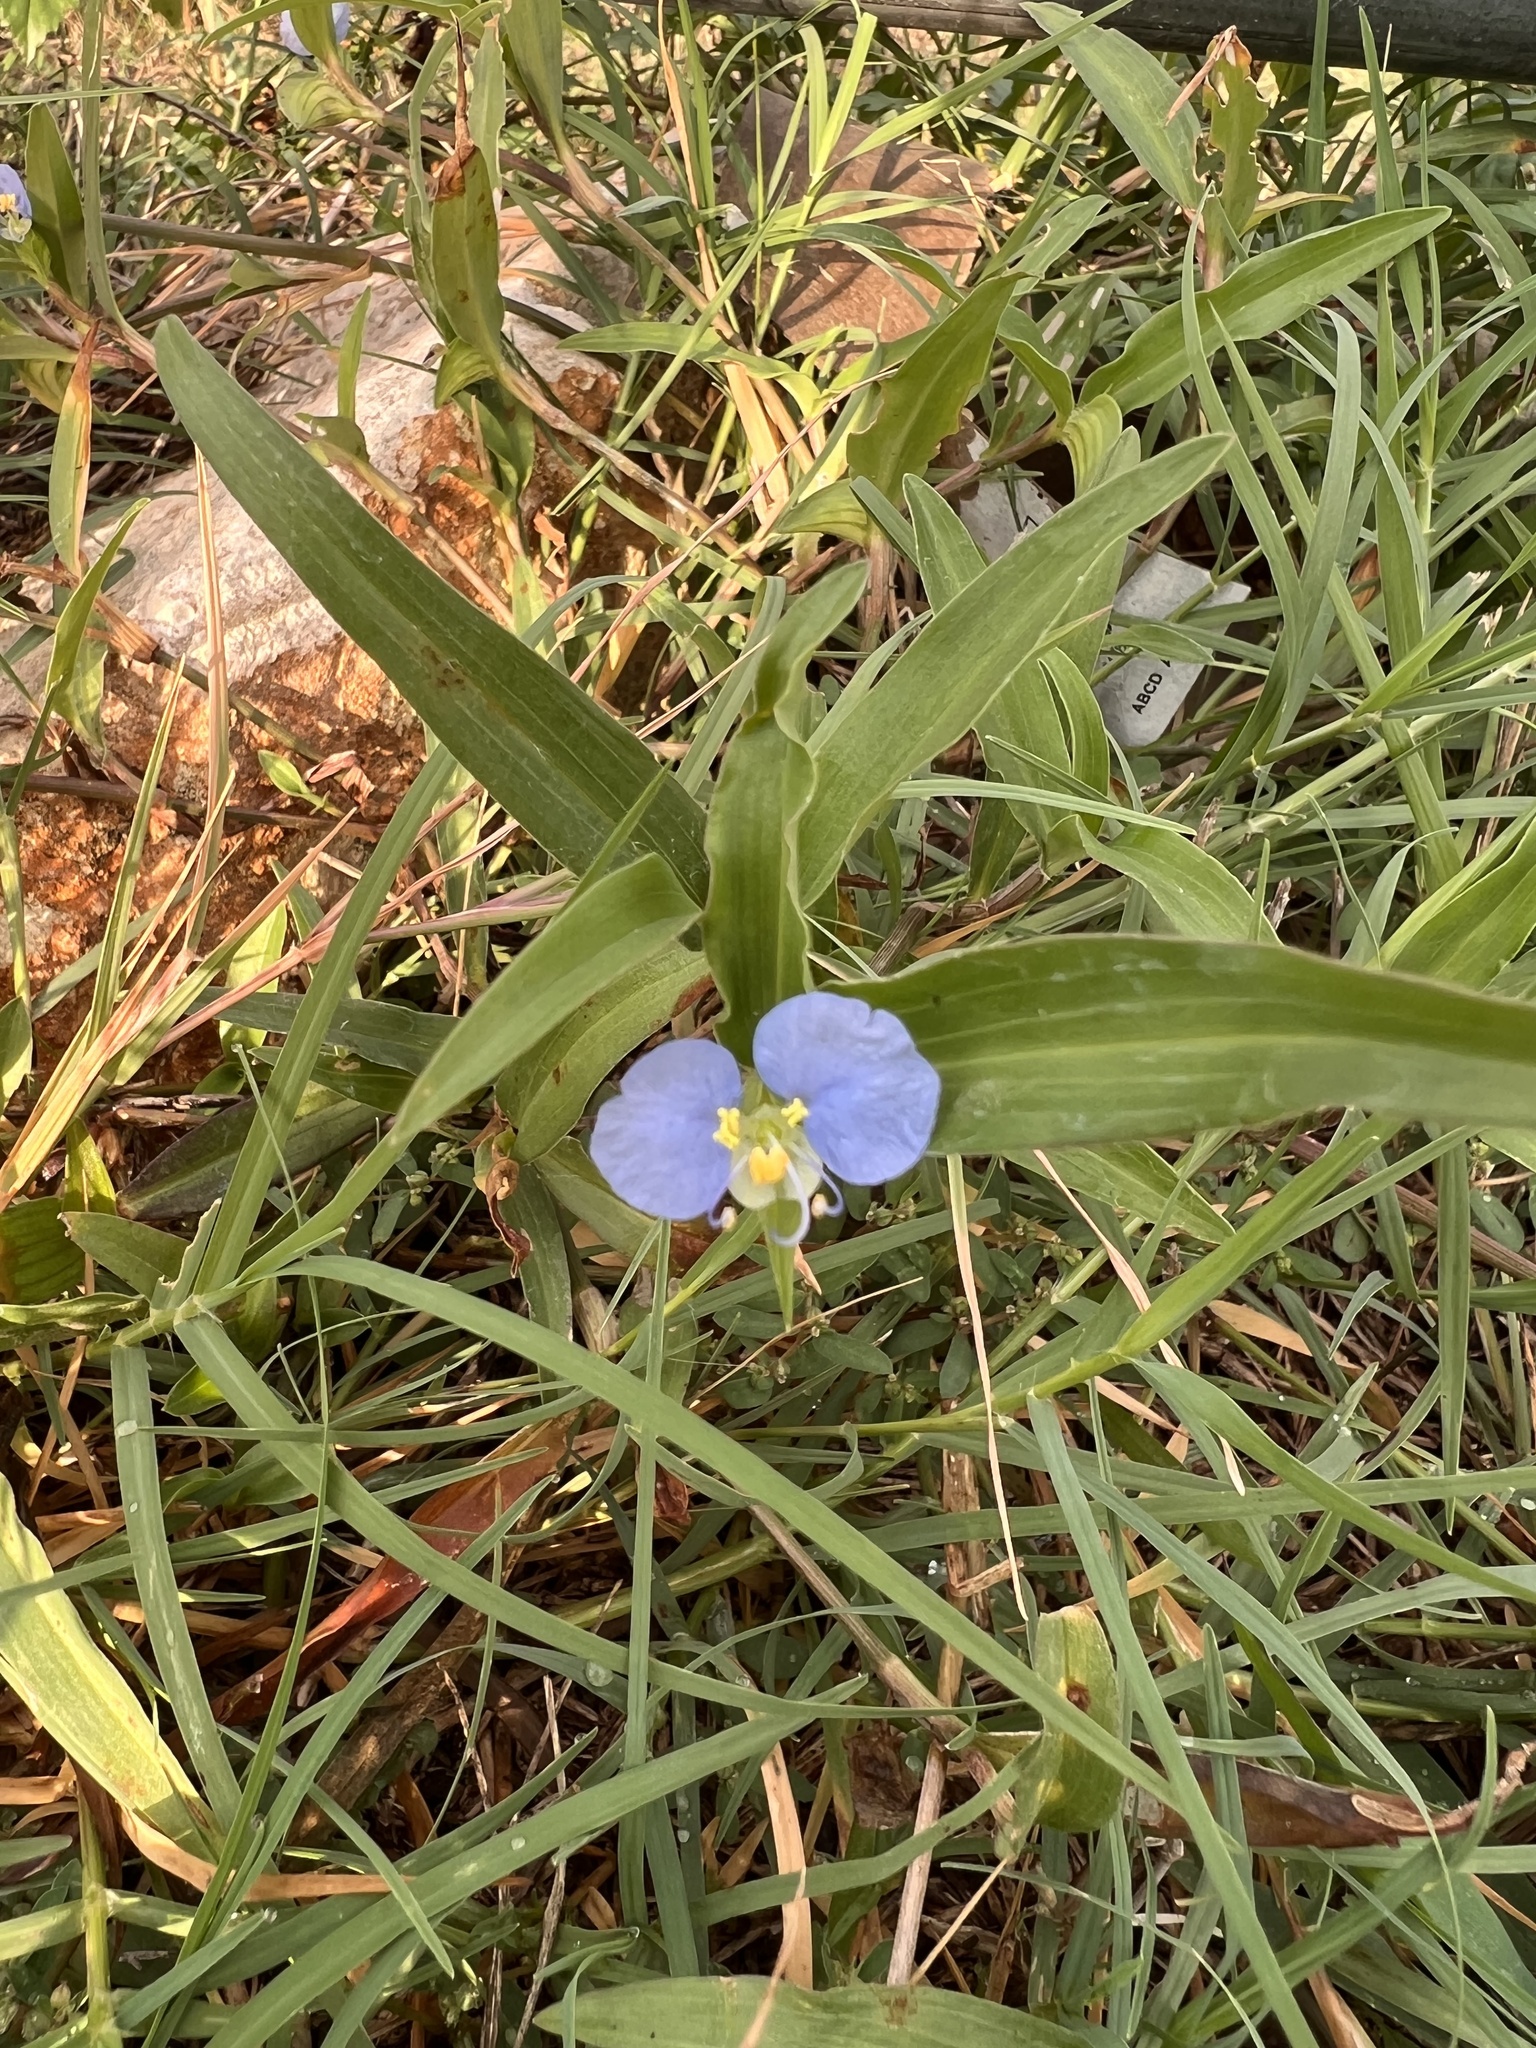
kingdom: Plantae
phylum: Tracheophyta
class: Liliopsida
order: Commelinales
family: Commelinaceae
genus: Commelina
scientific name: Commelina erecta
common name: Blousel blommetjie
